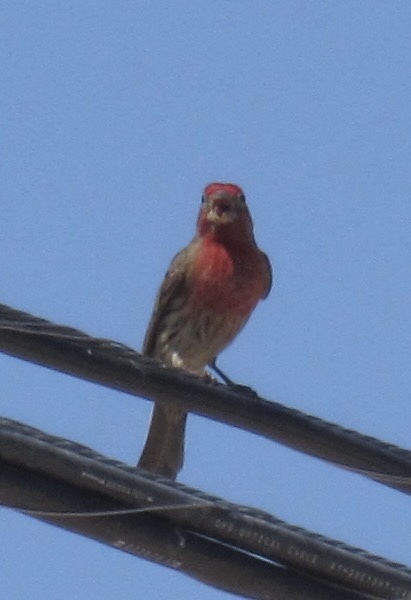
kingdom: Animalia
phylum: Chordata
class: Aves
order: Passeriformes
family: Fringillidae
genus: Haemorhous
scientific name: Haemorhous mexicanus
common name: House finch
